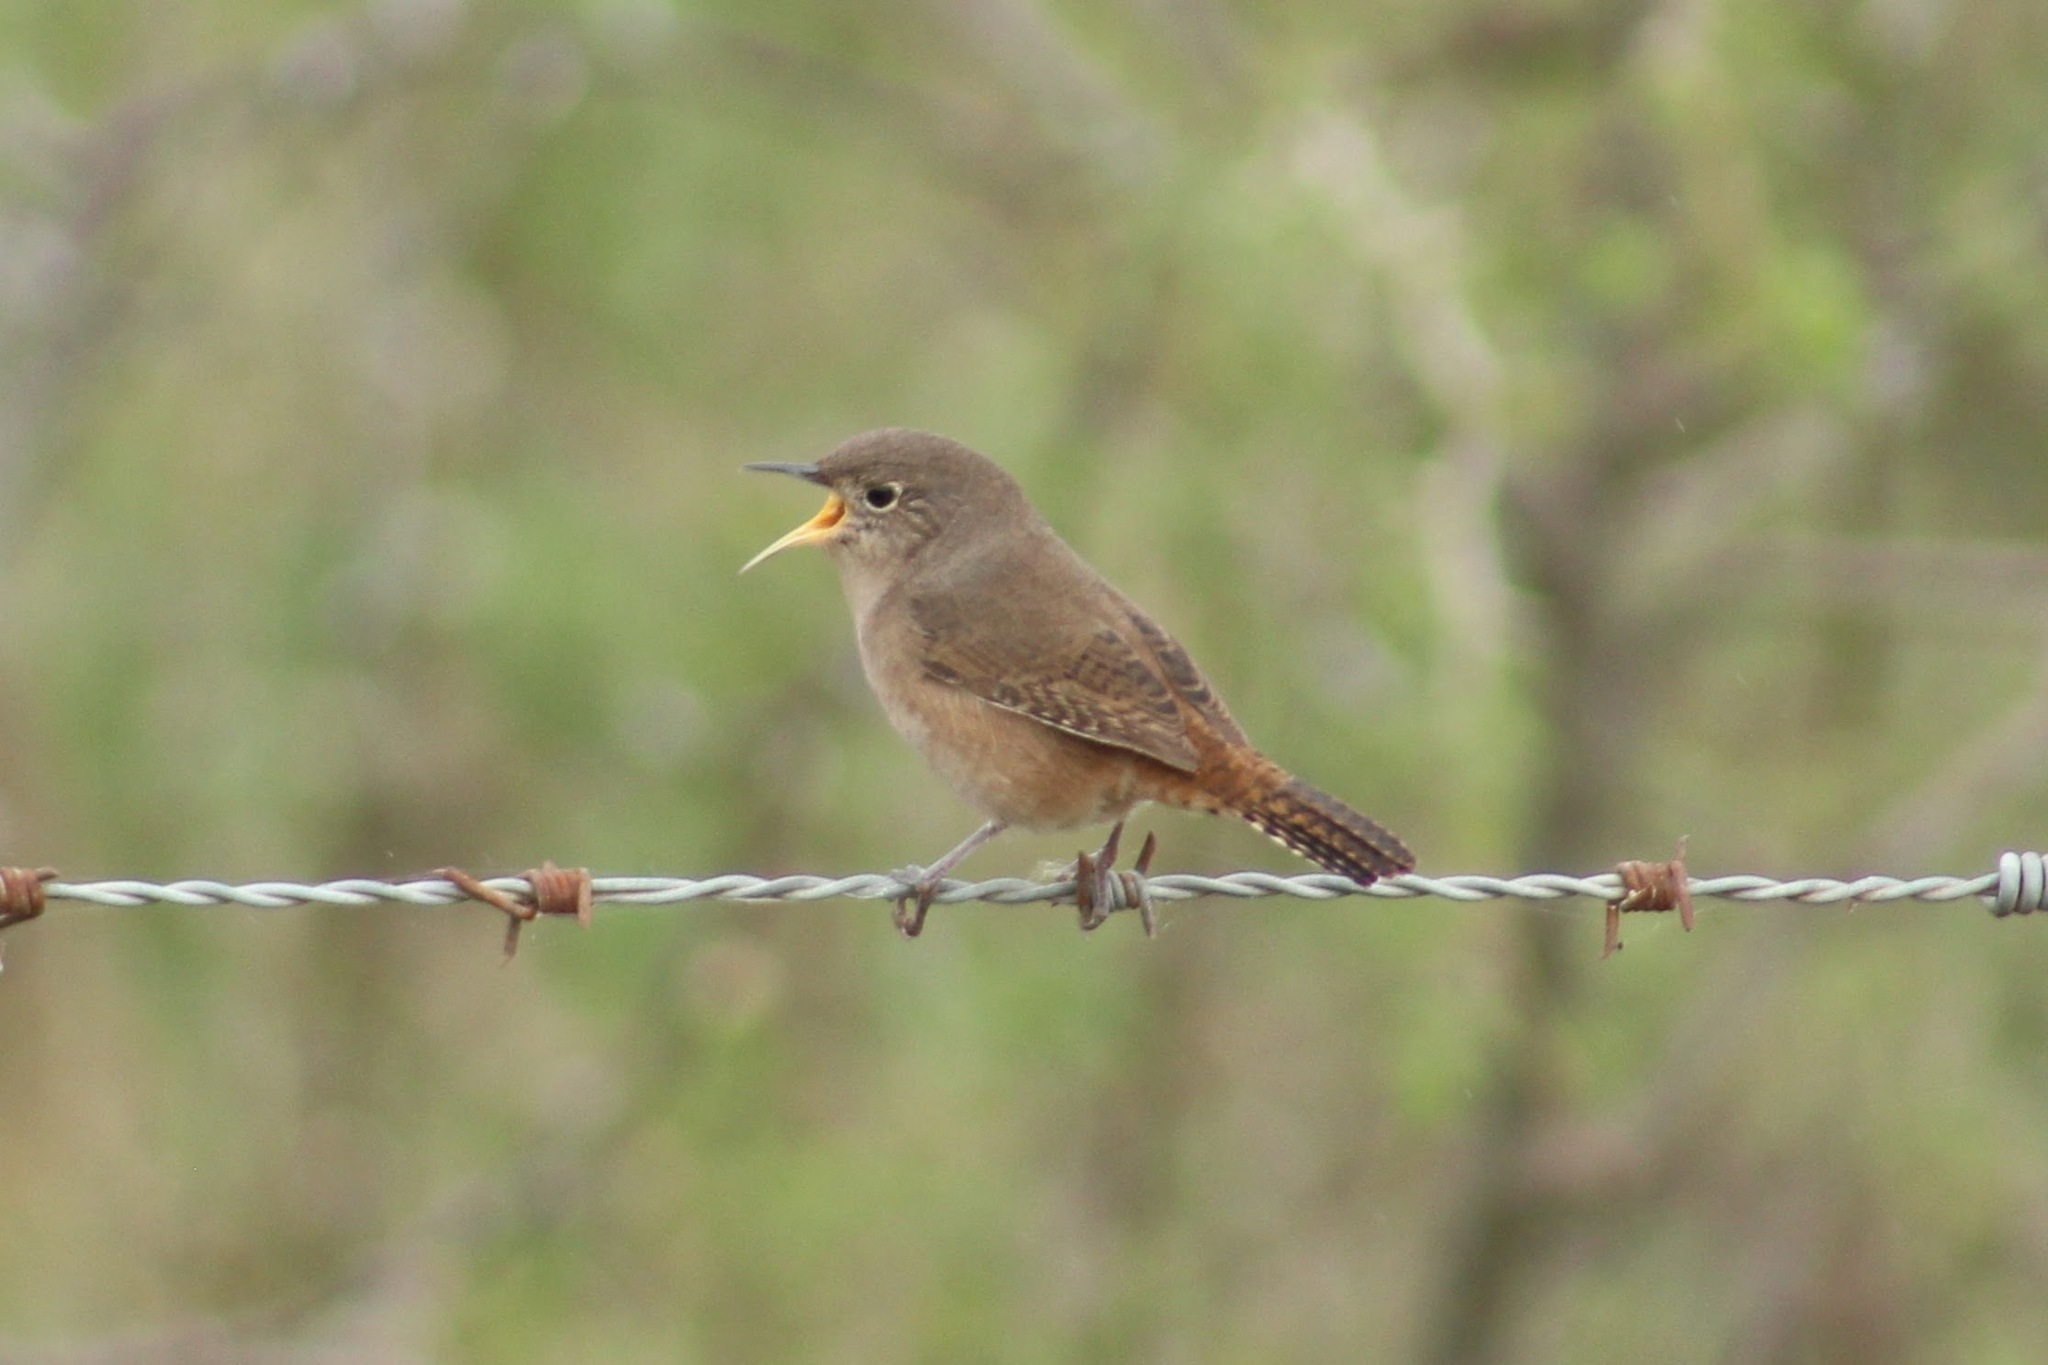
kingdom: Animalia
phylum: Chordata
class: Aves
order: Passeriformes
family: Troglodytidae
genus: Troglodytes
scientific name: Troglodytes aedon
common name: House wren
